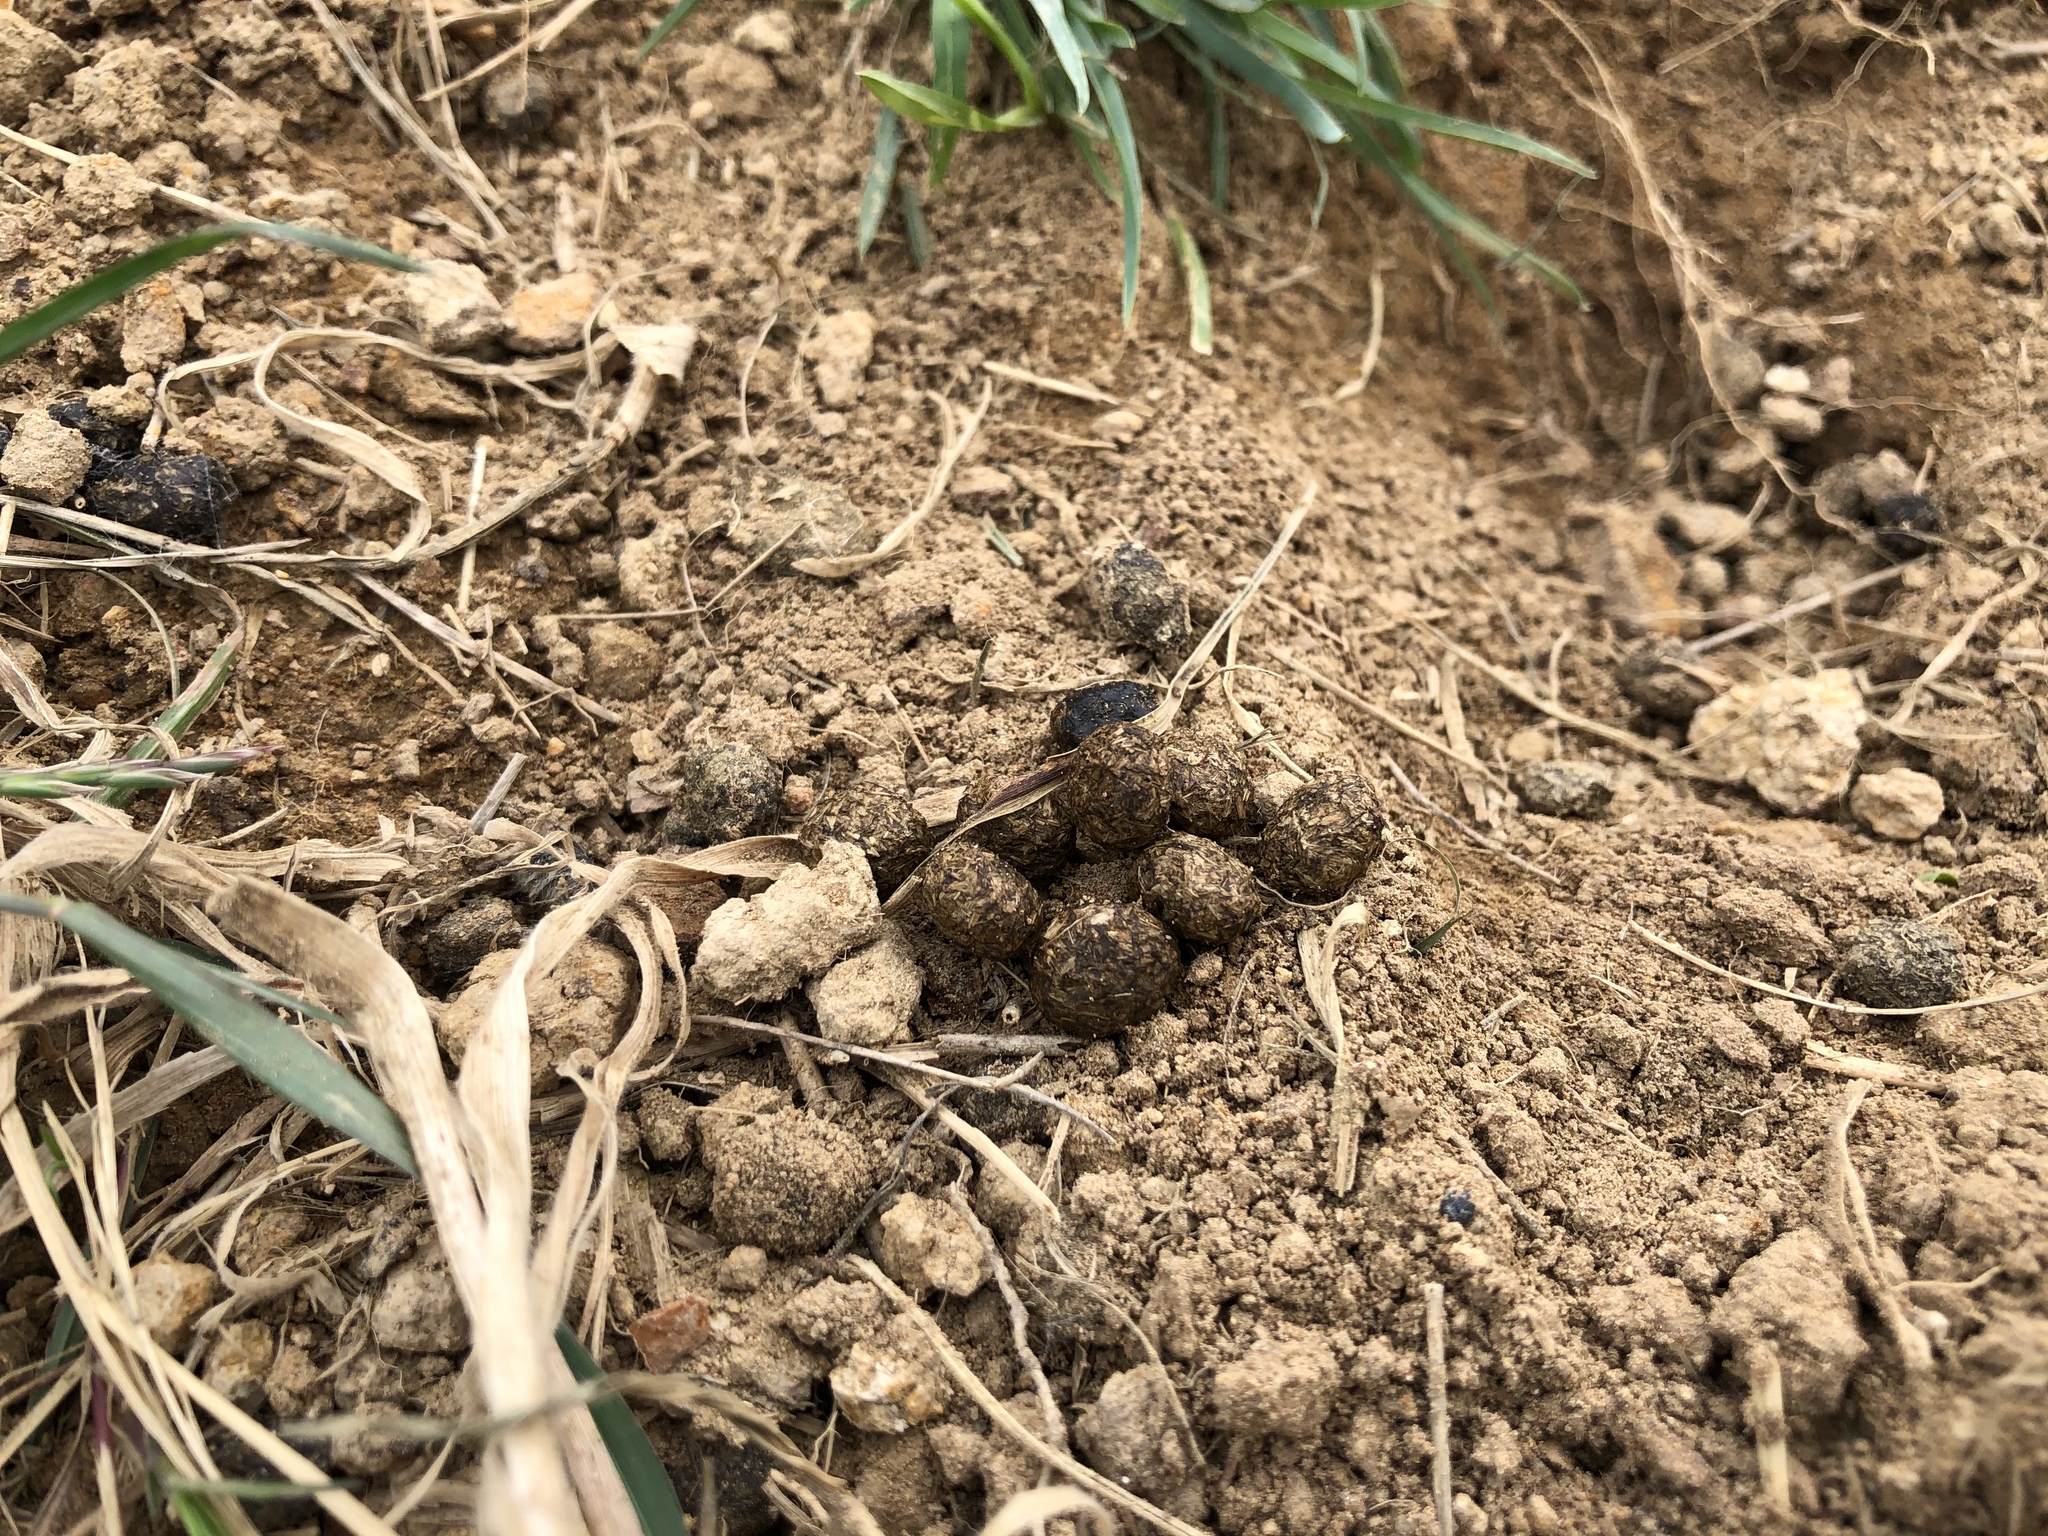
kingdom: Animalia
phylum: Chordata
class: Mammalia
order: Lagomorpha
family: Leporidae
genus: Oryctolagus
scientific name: Oryctolagus cuniculus
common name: European rabbit
